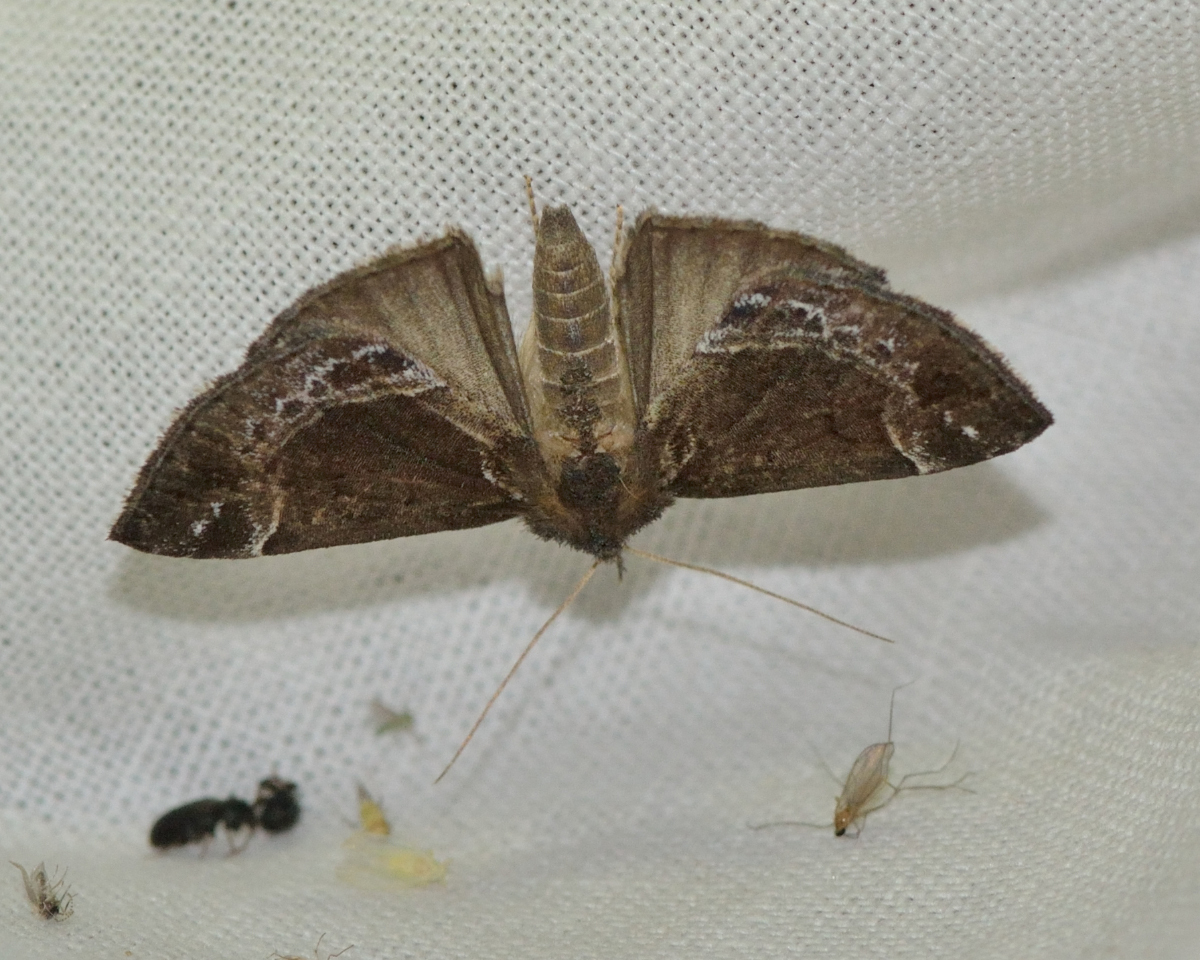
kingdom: Animalia
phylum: Arthropoda
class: Insecta
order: Lepidoptera
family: Erebidae
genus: Hypena
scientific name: Hypena crassalis
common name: Beautiful snout
